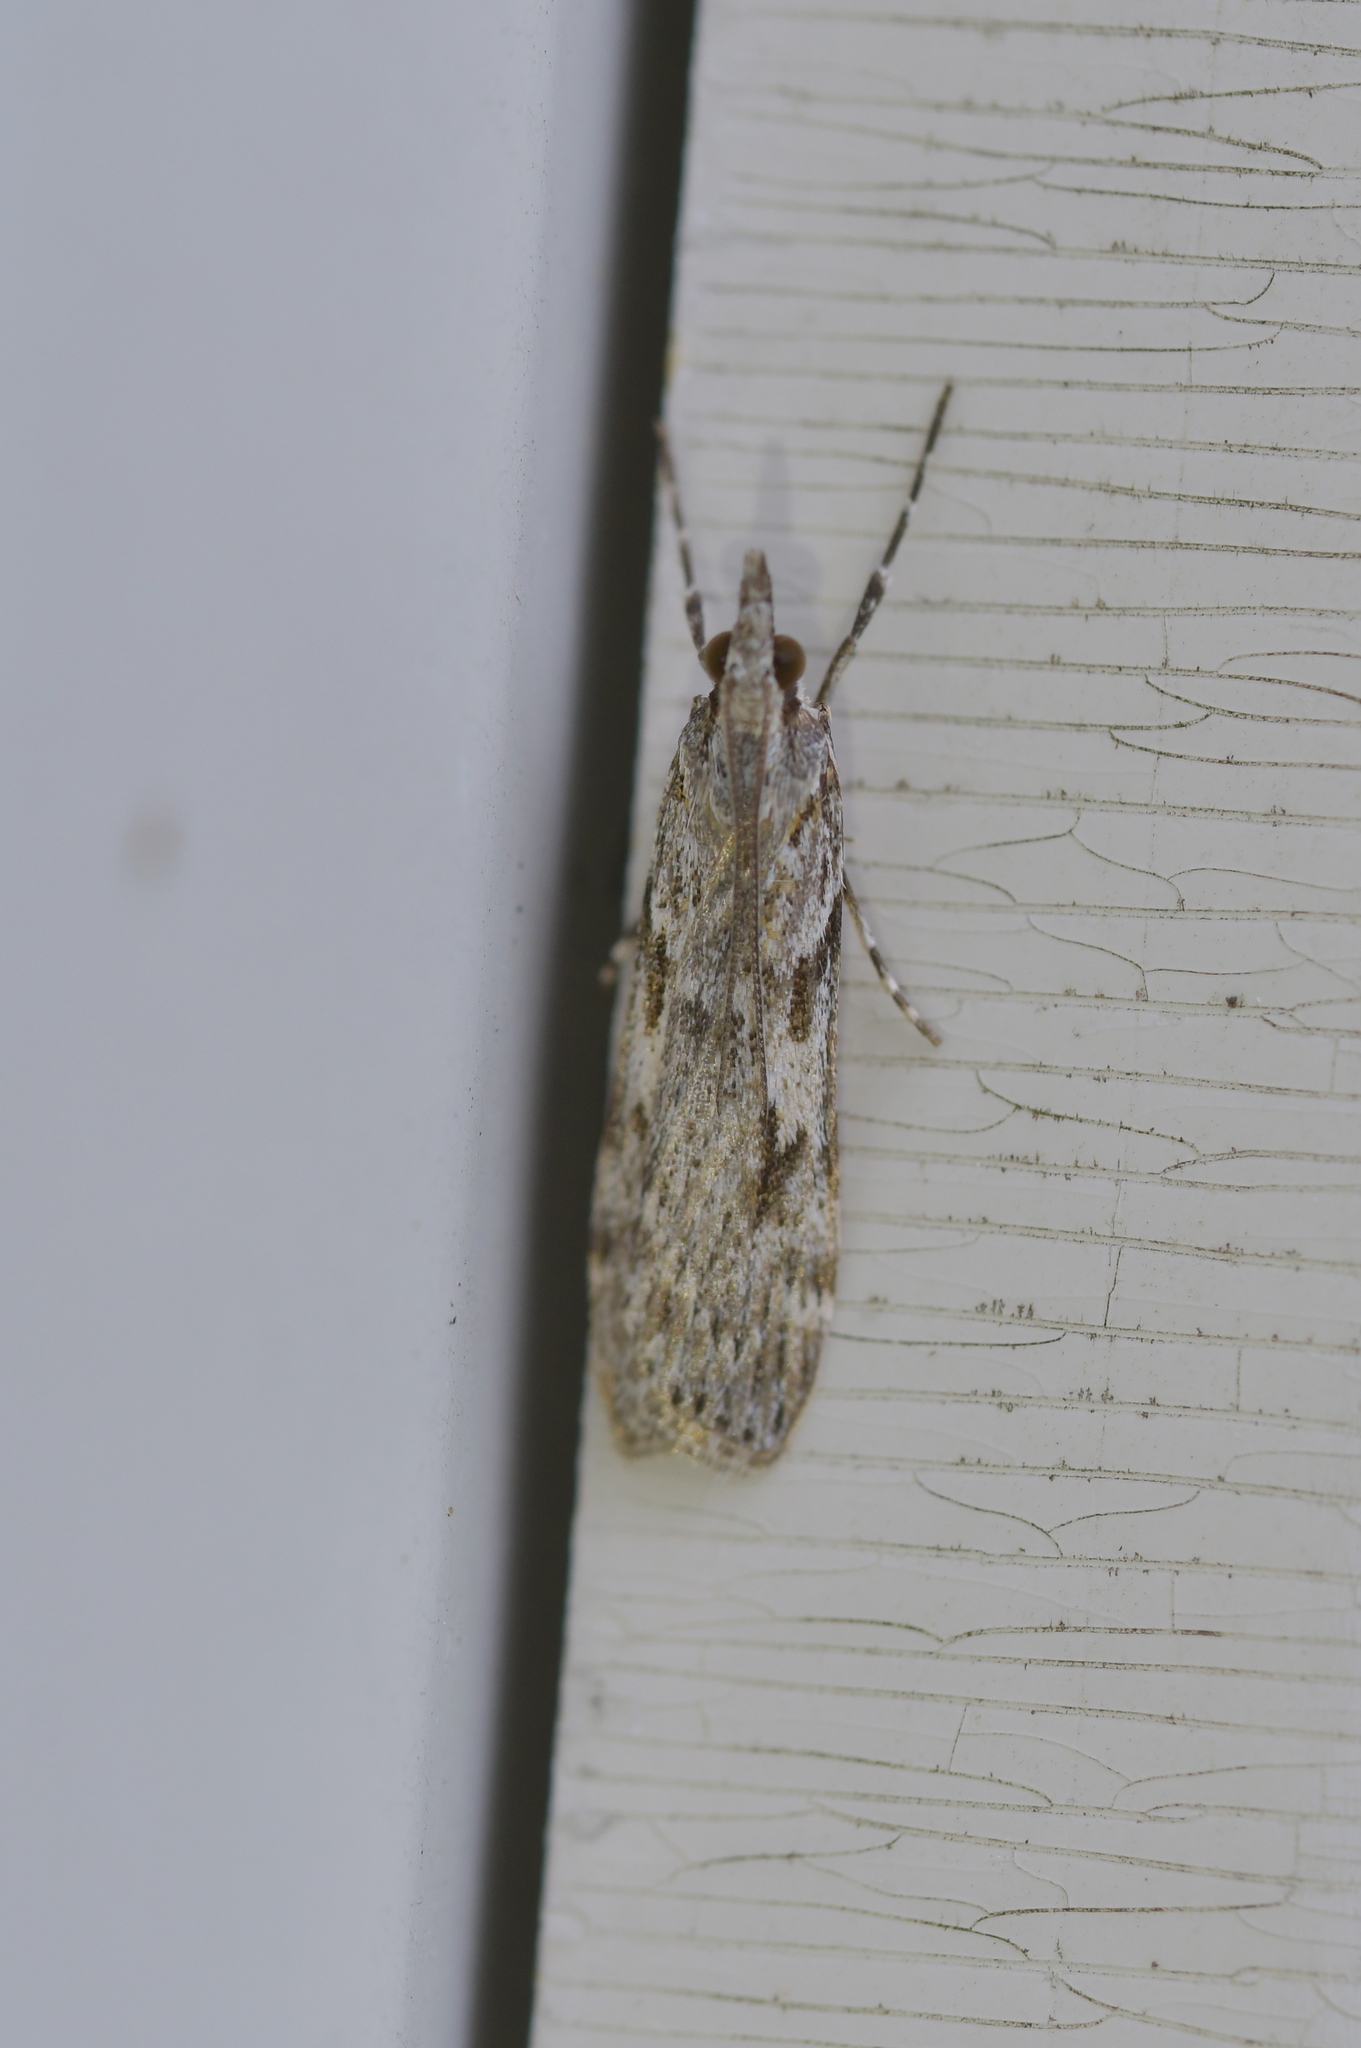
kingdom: Animalia
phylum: Arthropoda
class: Insecta
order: Lepidoptera
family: Crambidae
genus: Scoparia
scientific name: Scoparia halopis
